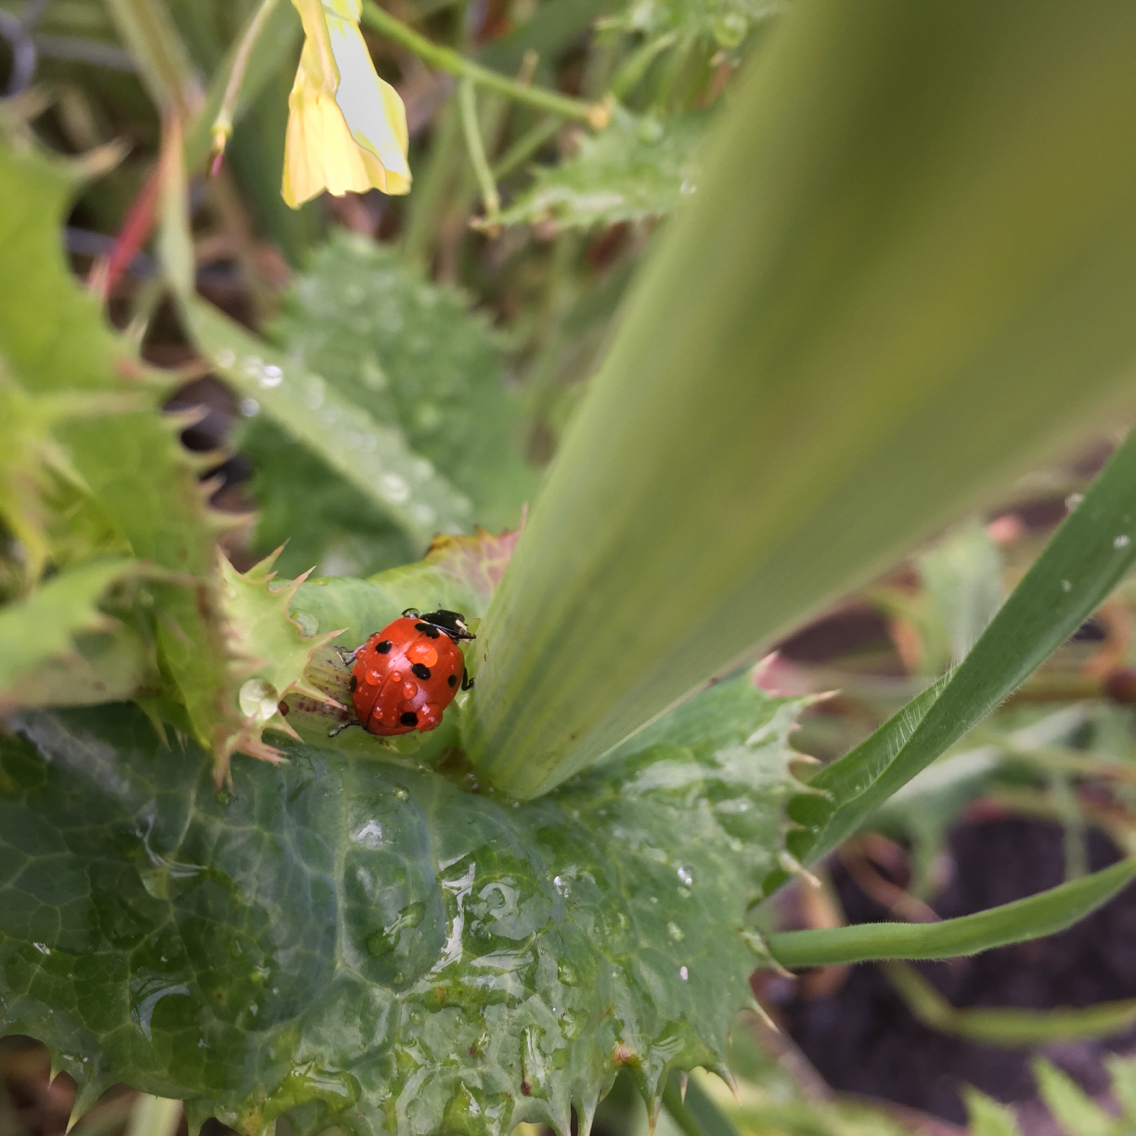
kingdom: Animalia
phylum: Arthropoda
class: Insecta
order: Coleoptera
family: Coccinellidae
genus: Coccinella
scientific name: Coccinella septempunctata
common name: Sevenspotted lady beetle
